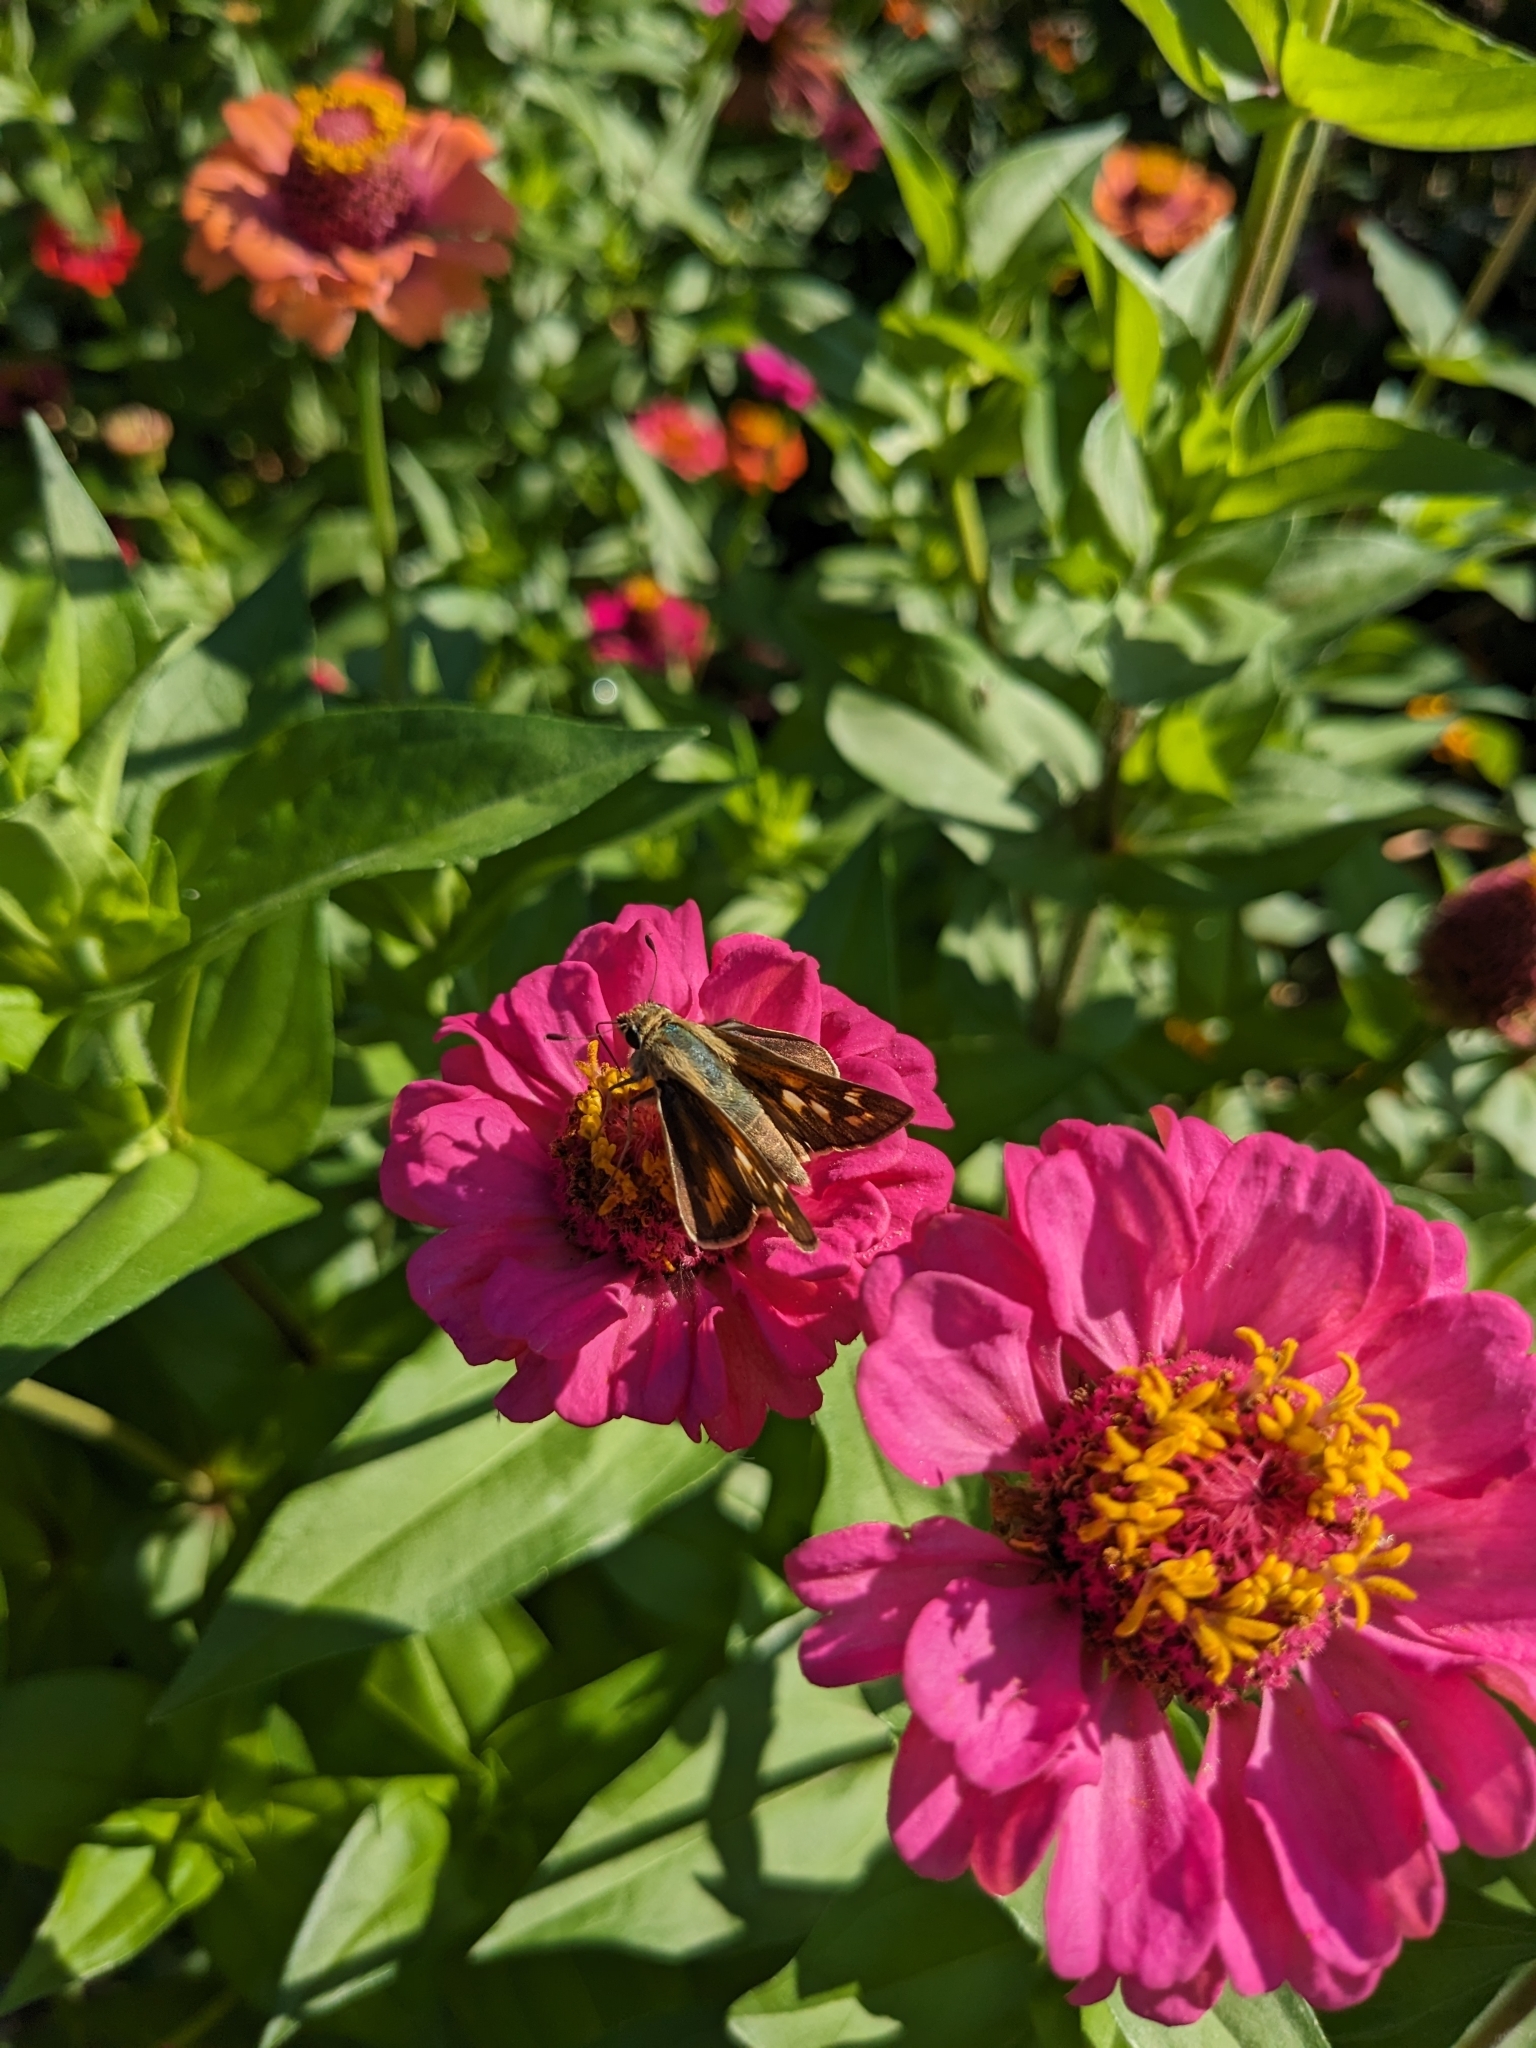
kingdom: Animalia
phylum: Arthropoda
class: Insecta
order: Lepidoptera
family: Hesperiidae
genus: Atalopedes
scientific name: Atalopedes
